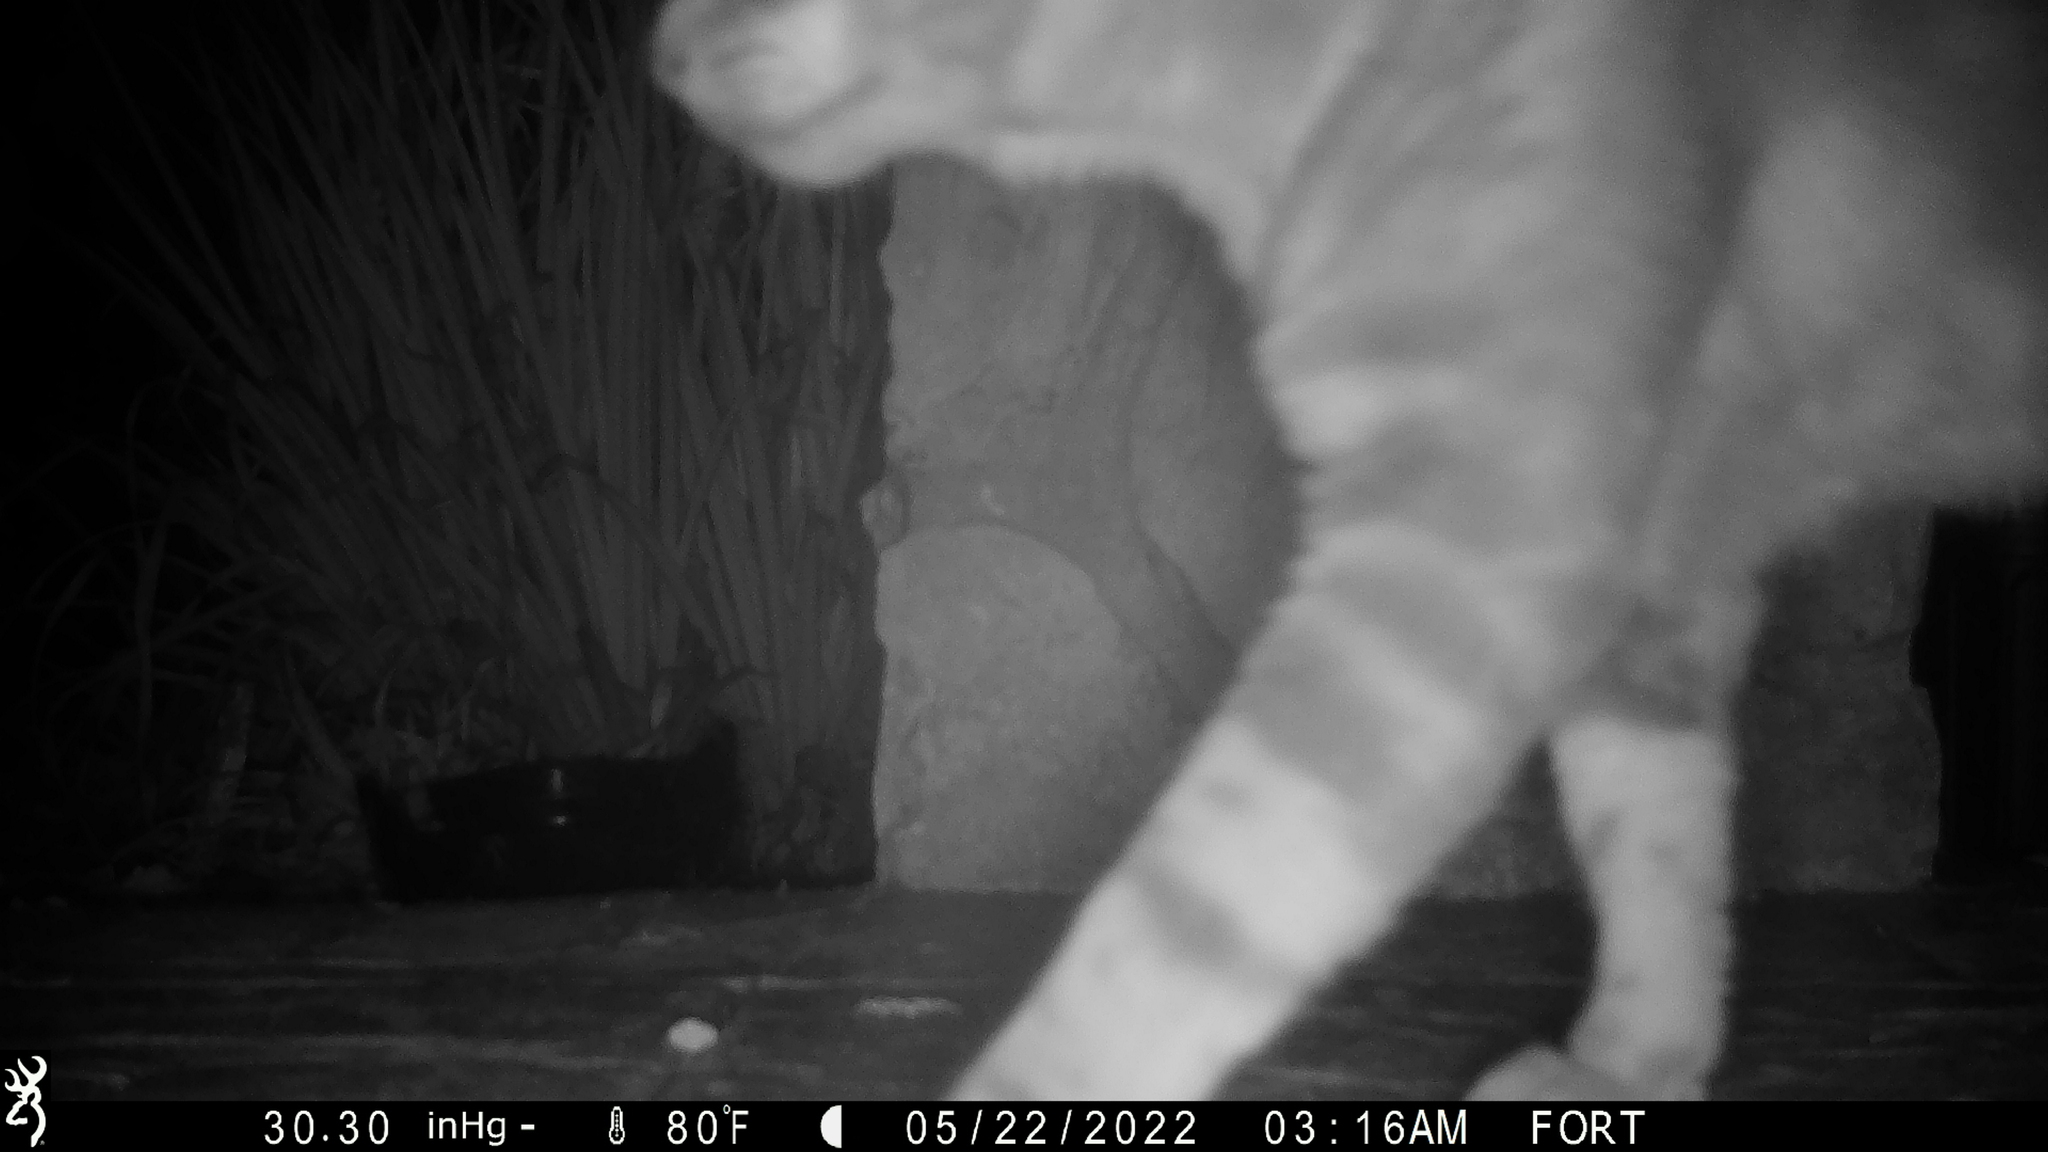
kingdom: Animalia
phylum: Chordata
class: Mammalia
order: Carnivora
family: Felidae
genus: Felis
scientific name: Felis catus
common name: Domestic cat
